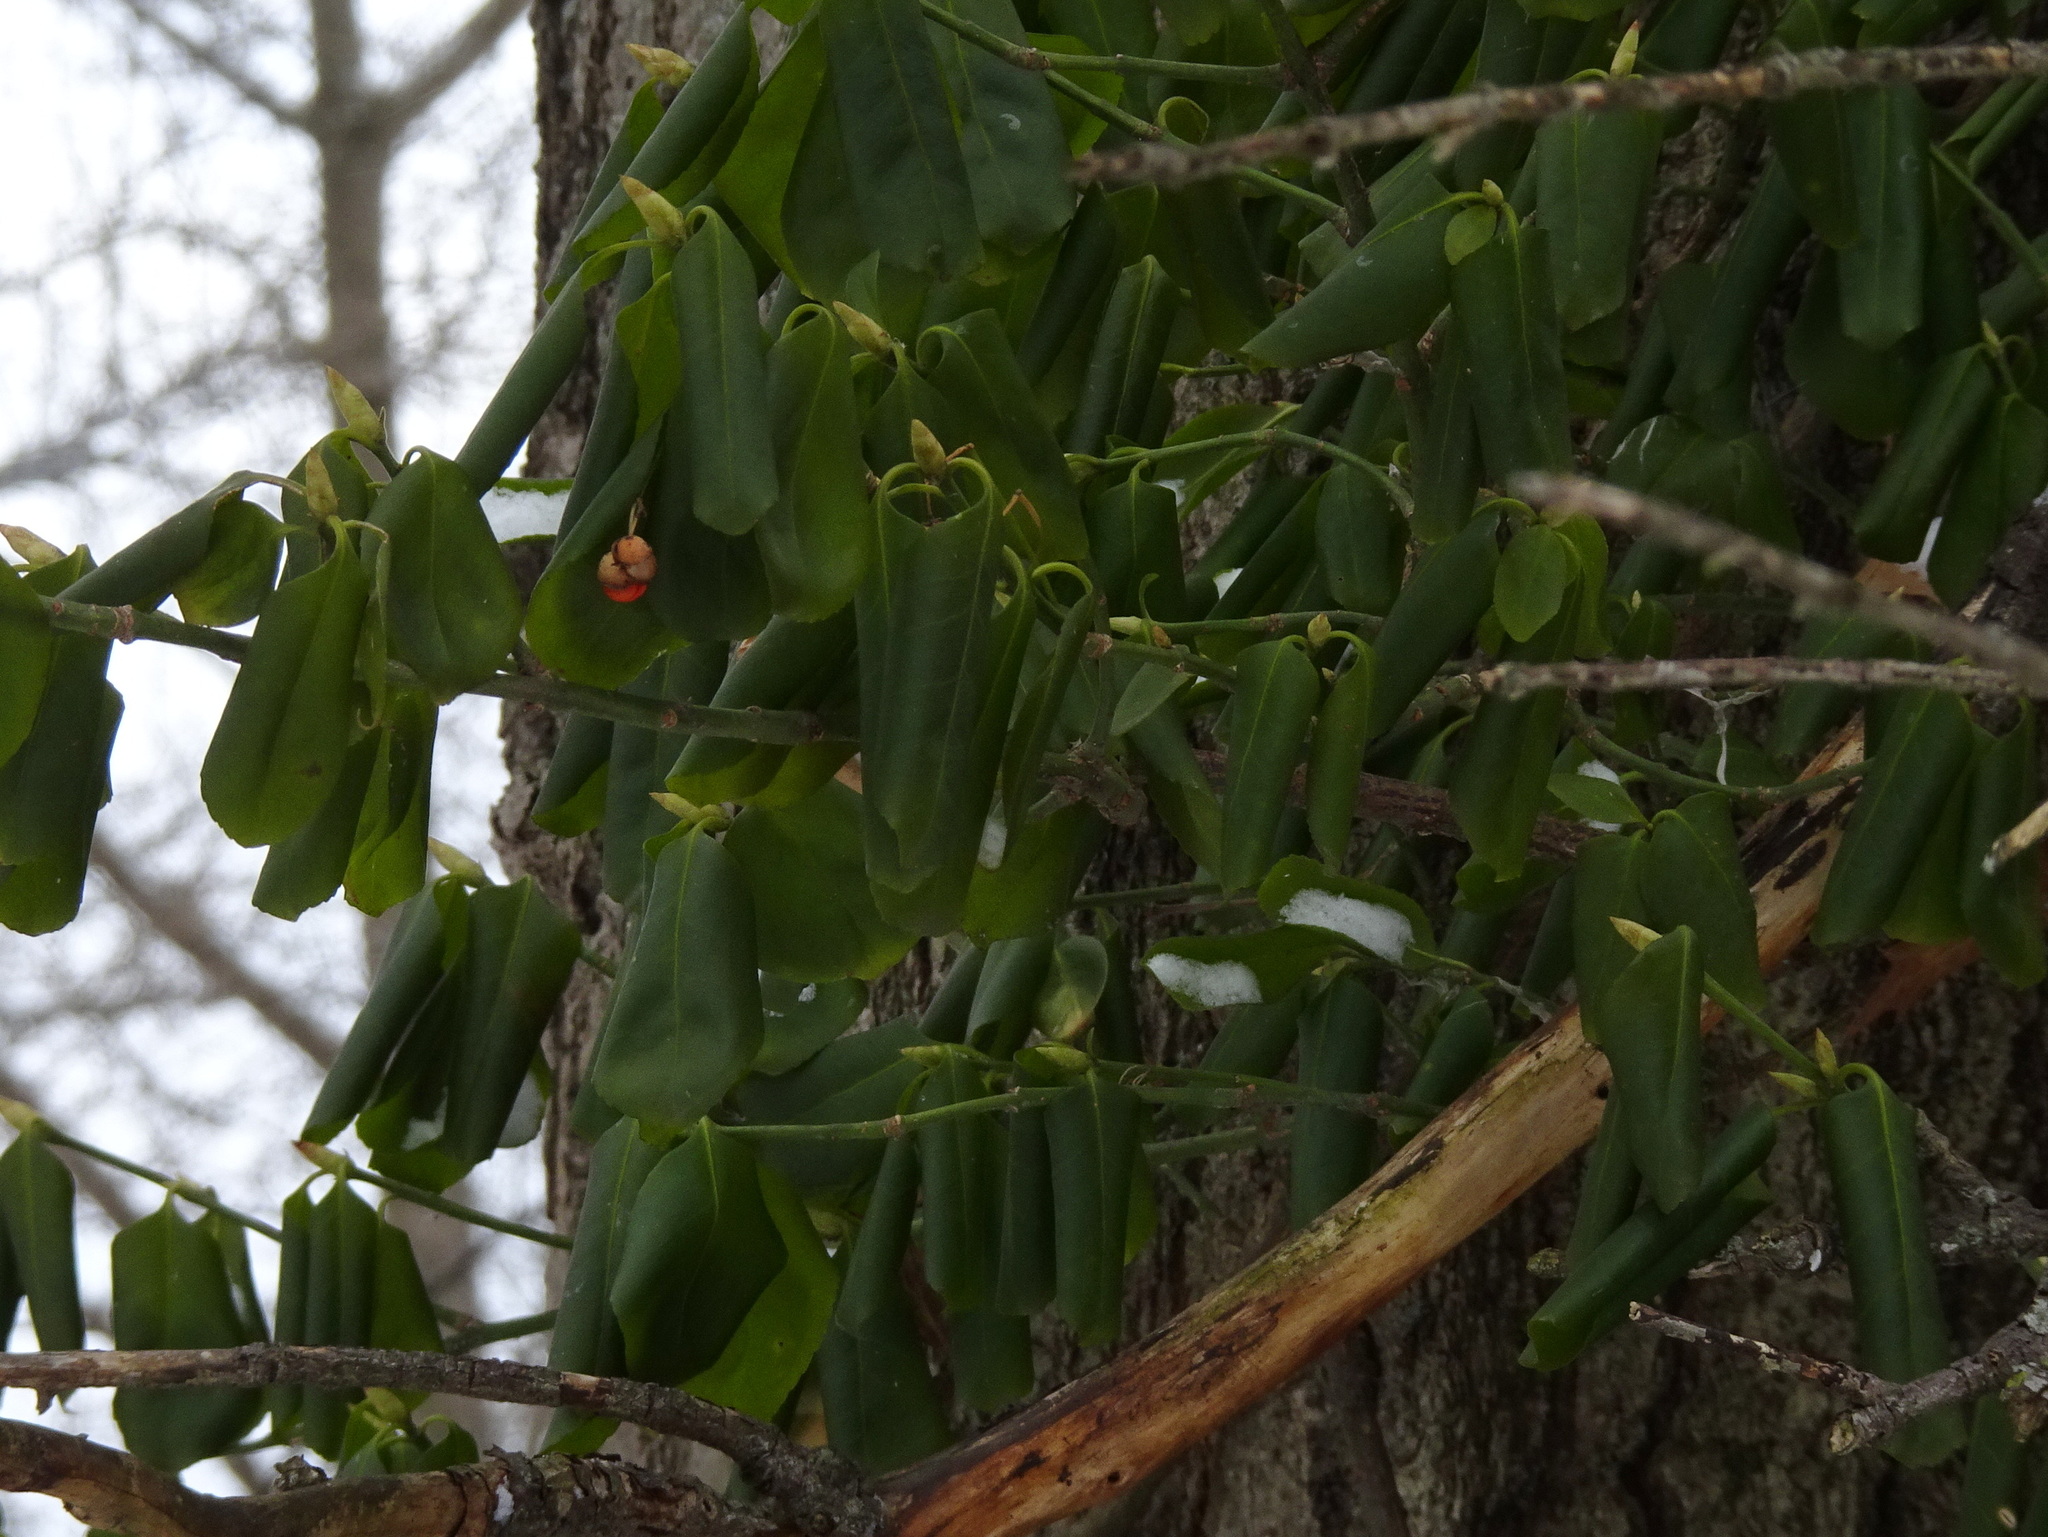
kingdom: Plantae
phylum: Tracheophyta
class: Magnoliopsida
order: Celastrales
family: Celastraceae
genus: Euonymus
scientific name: Euonymus fortunei
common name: Climbing euonymus
